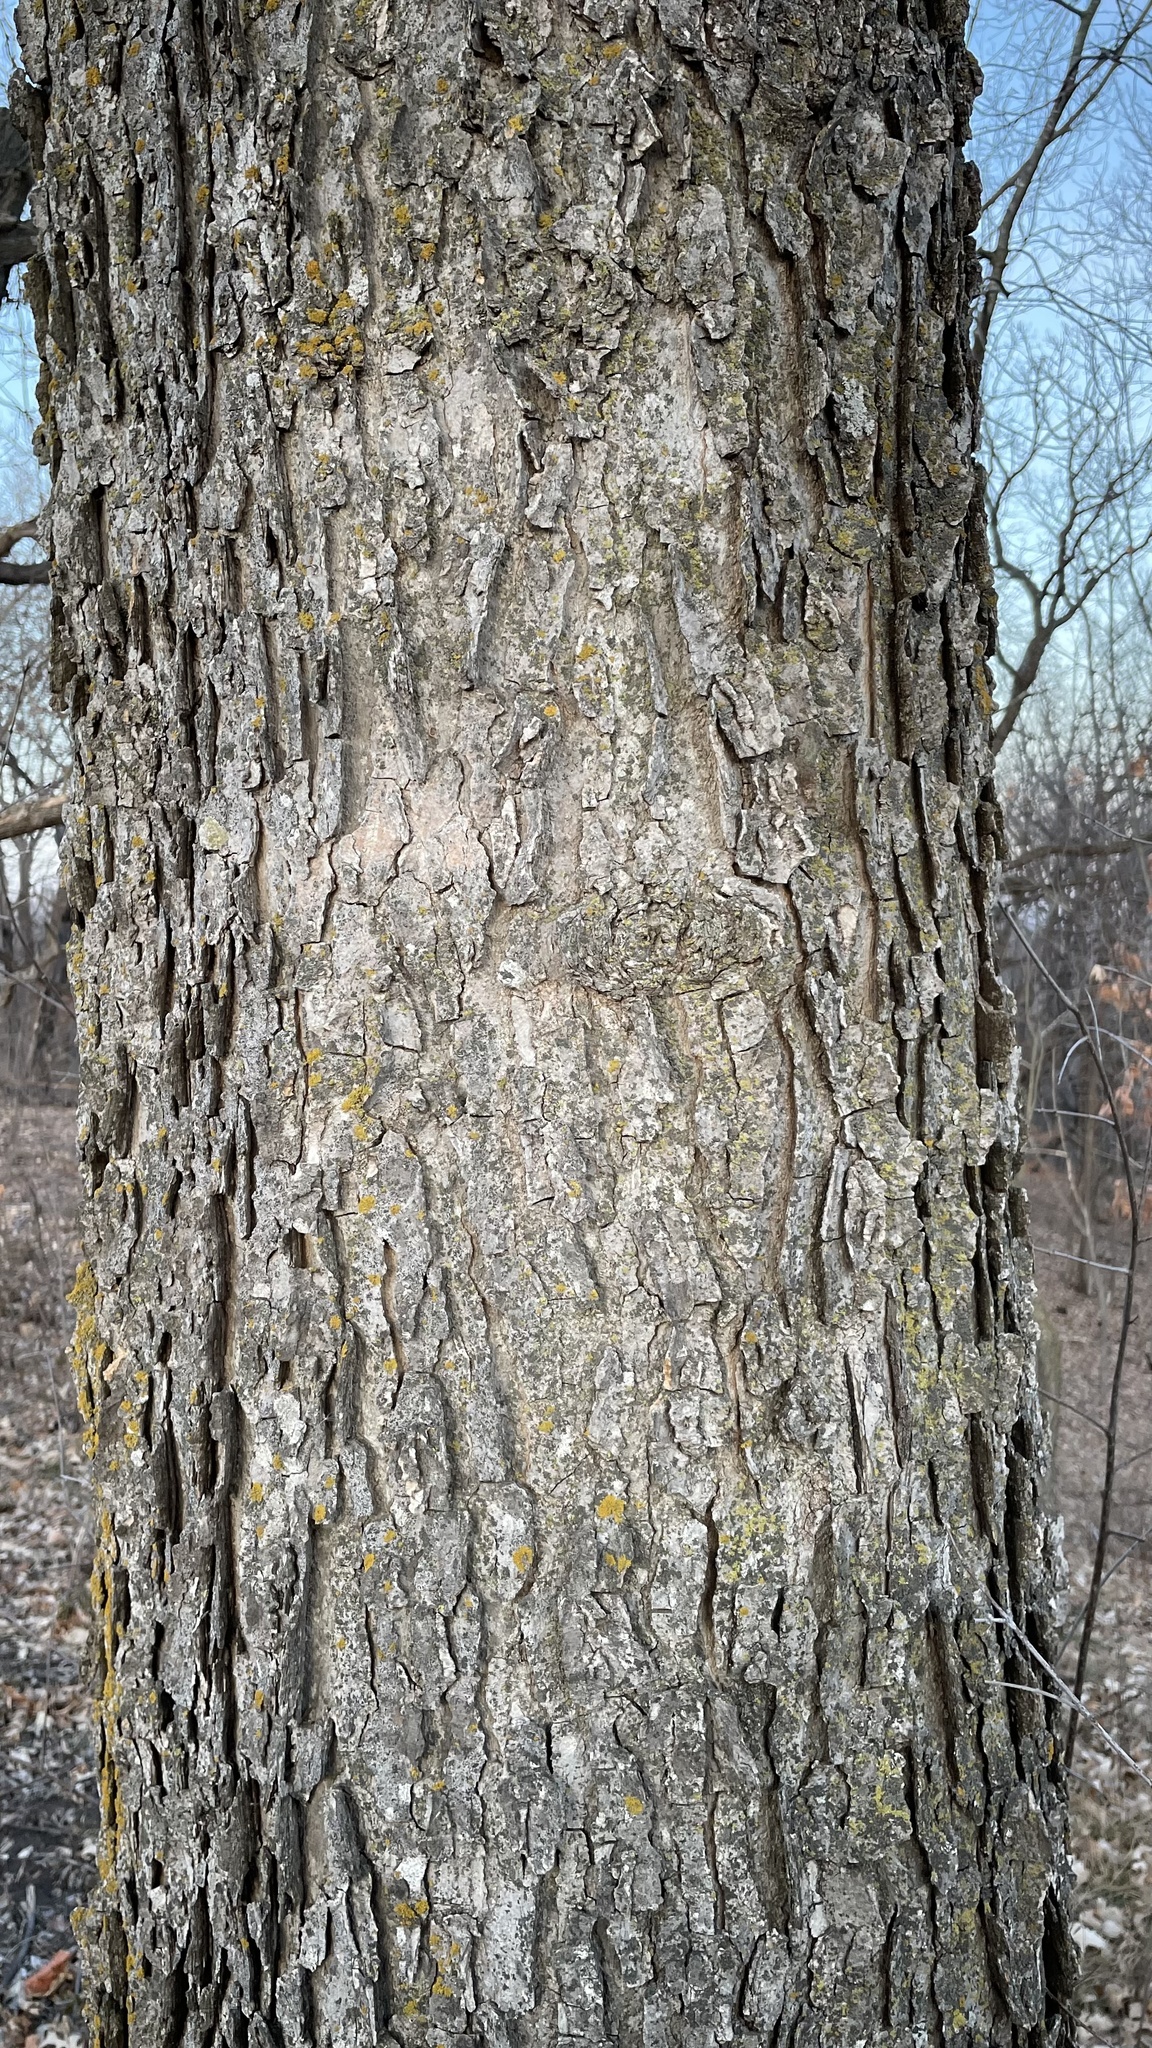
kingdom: Plantae
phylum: Tracheophyta
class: Magnoliopsida
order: Rosales
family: Cannabaceae
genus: Celtis
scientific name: Celtis occidentalis
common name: Common hackberry
